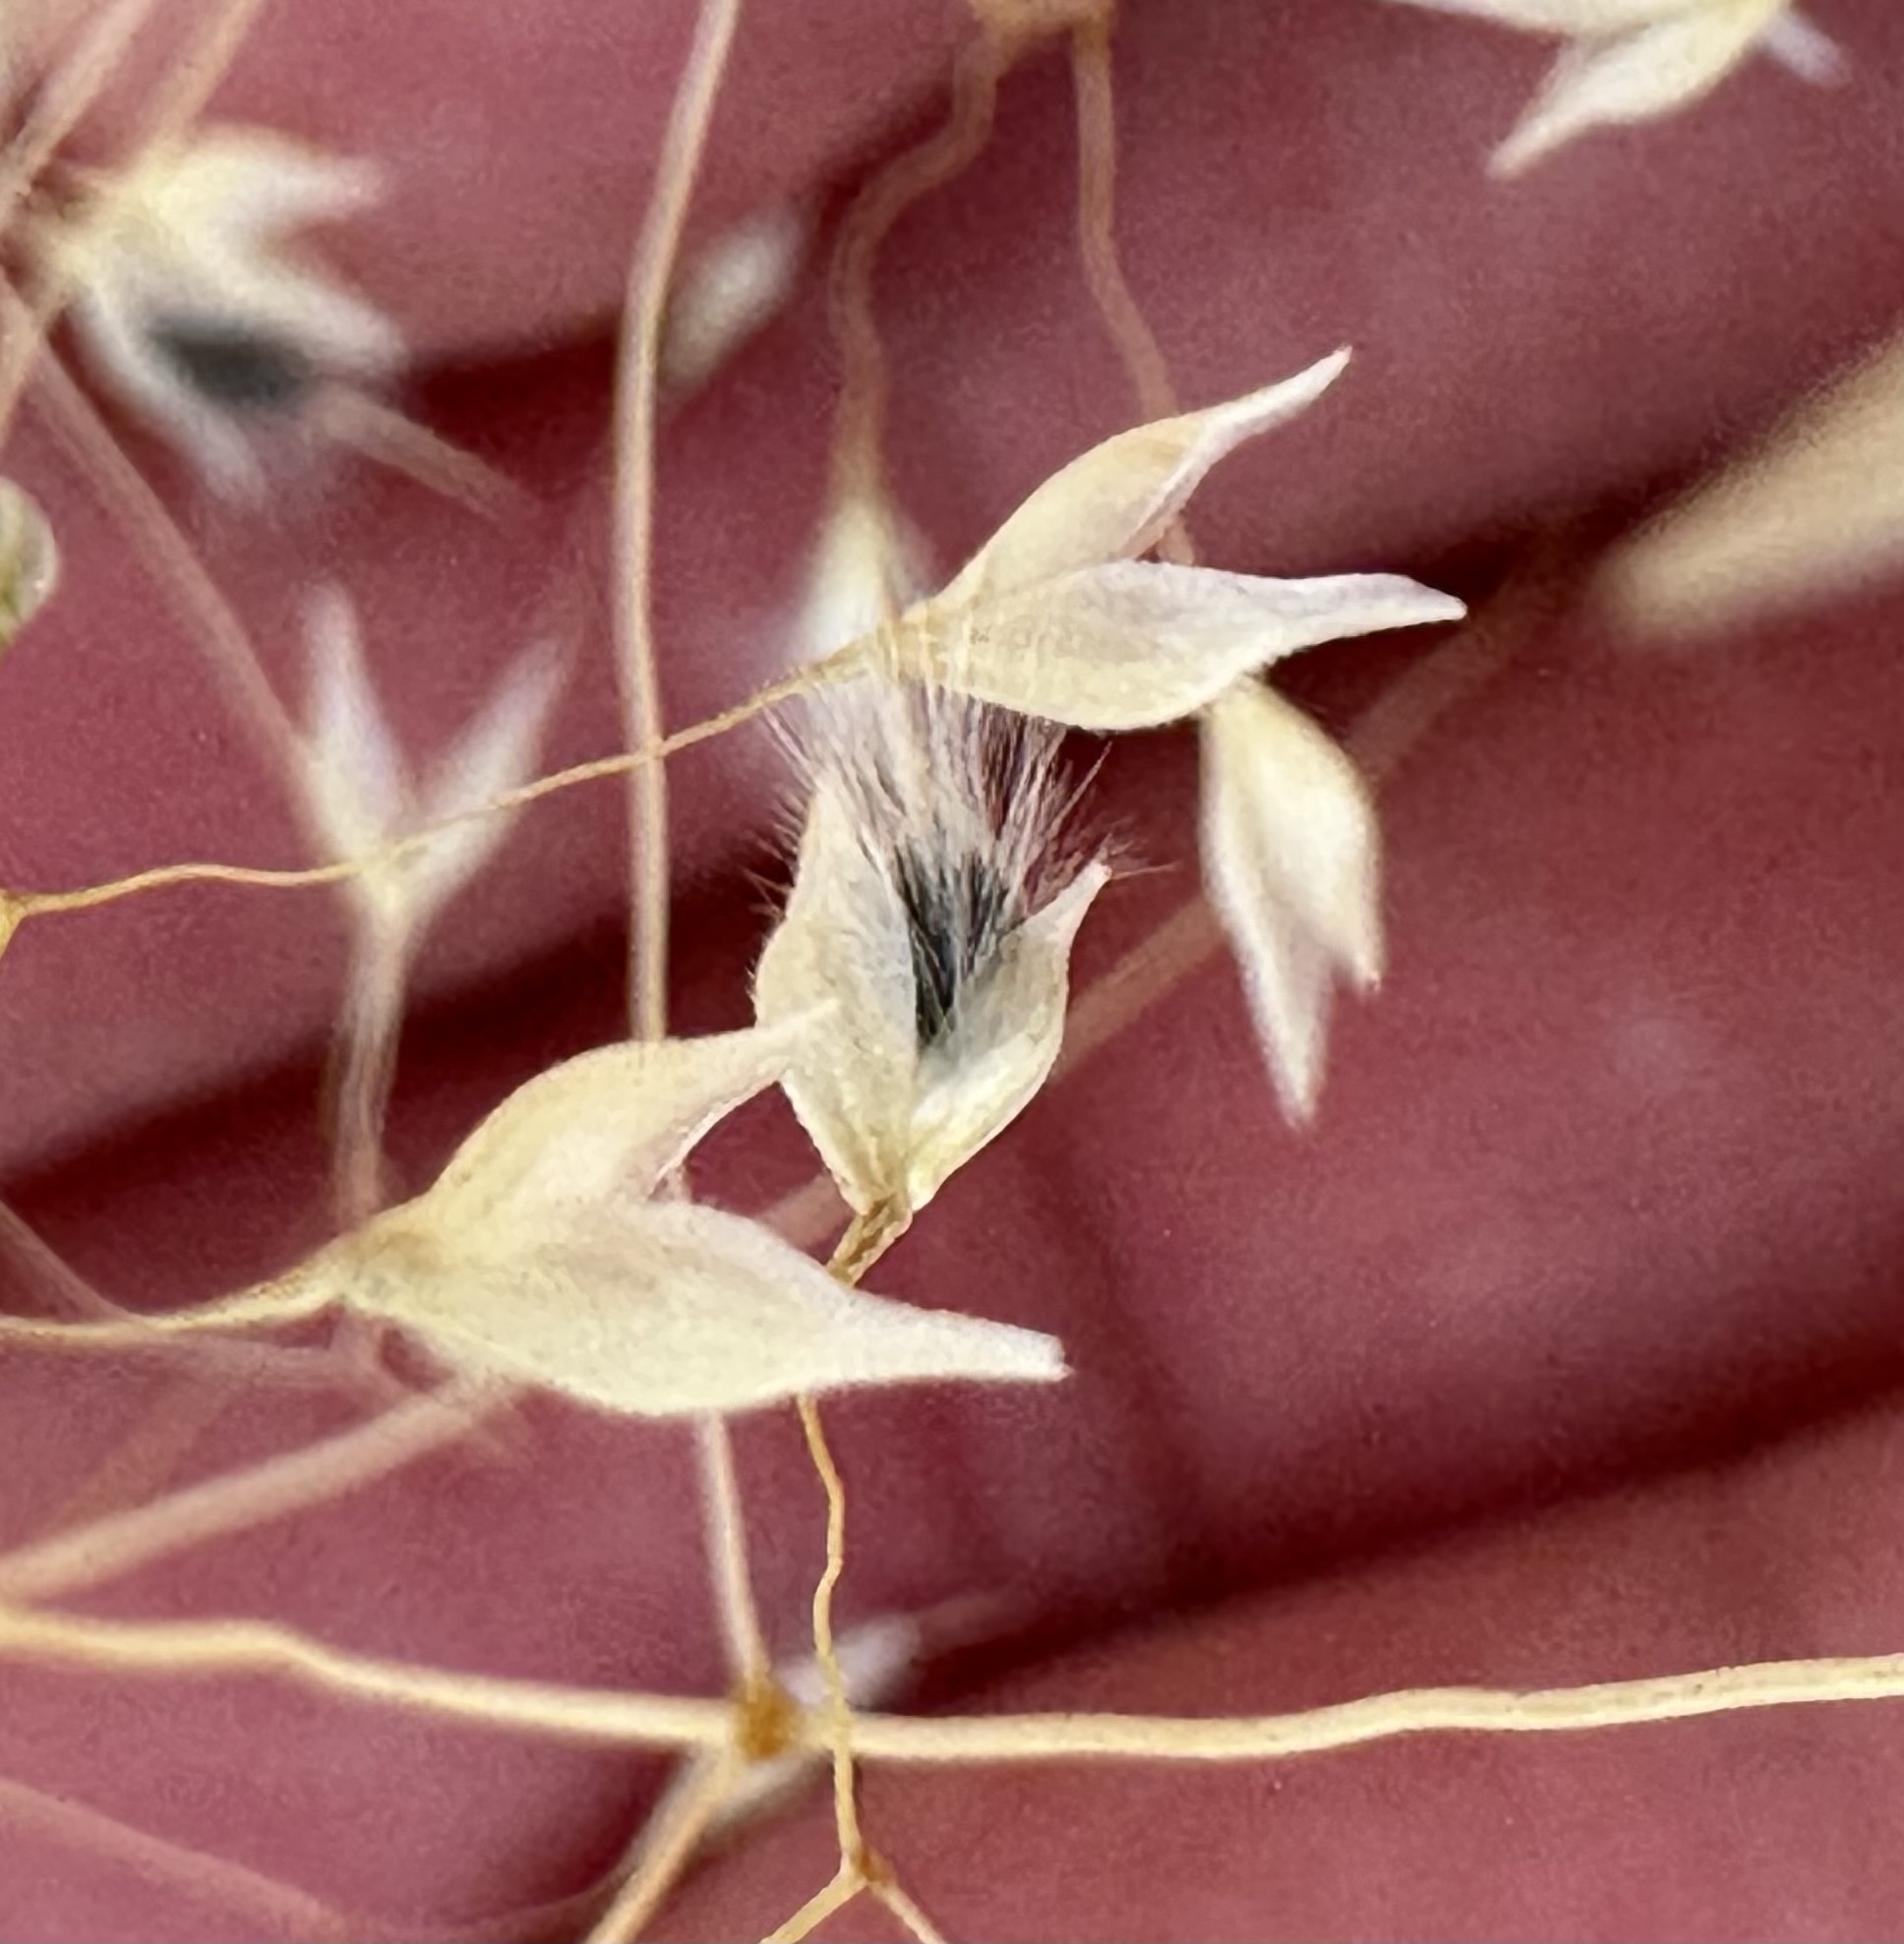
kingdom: Plantae
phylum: Tracheophyta
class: Liliopsida
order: Poales
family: Poaceae
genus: Eriocoma
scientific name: Eriocoma hymenoides
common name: Indian mountain ricegrass
